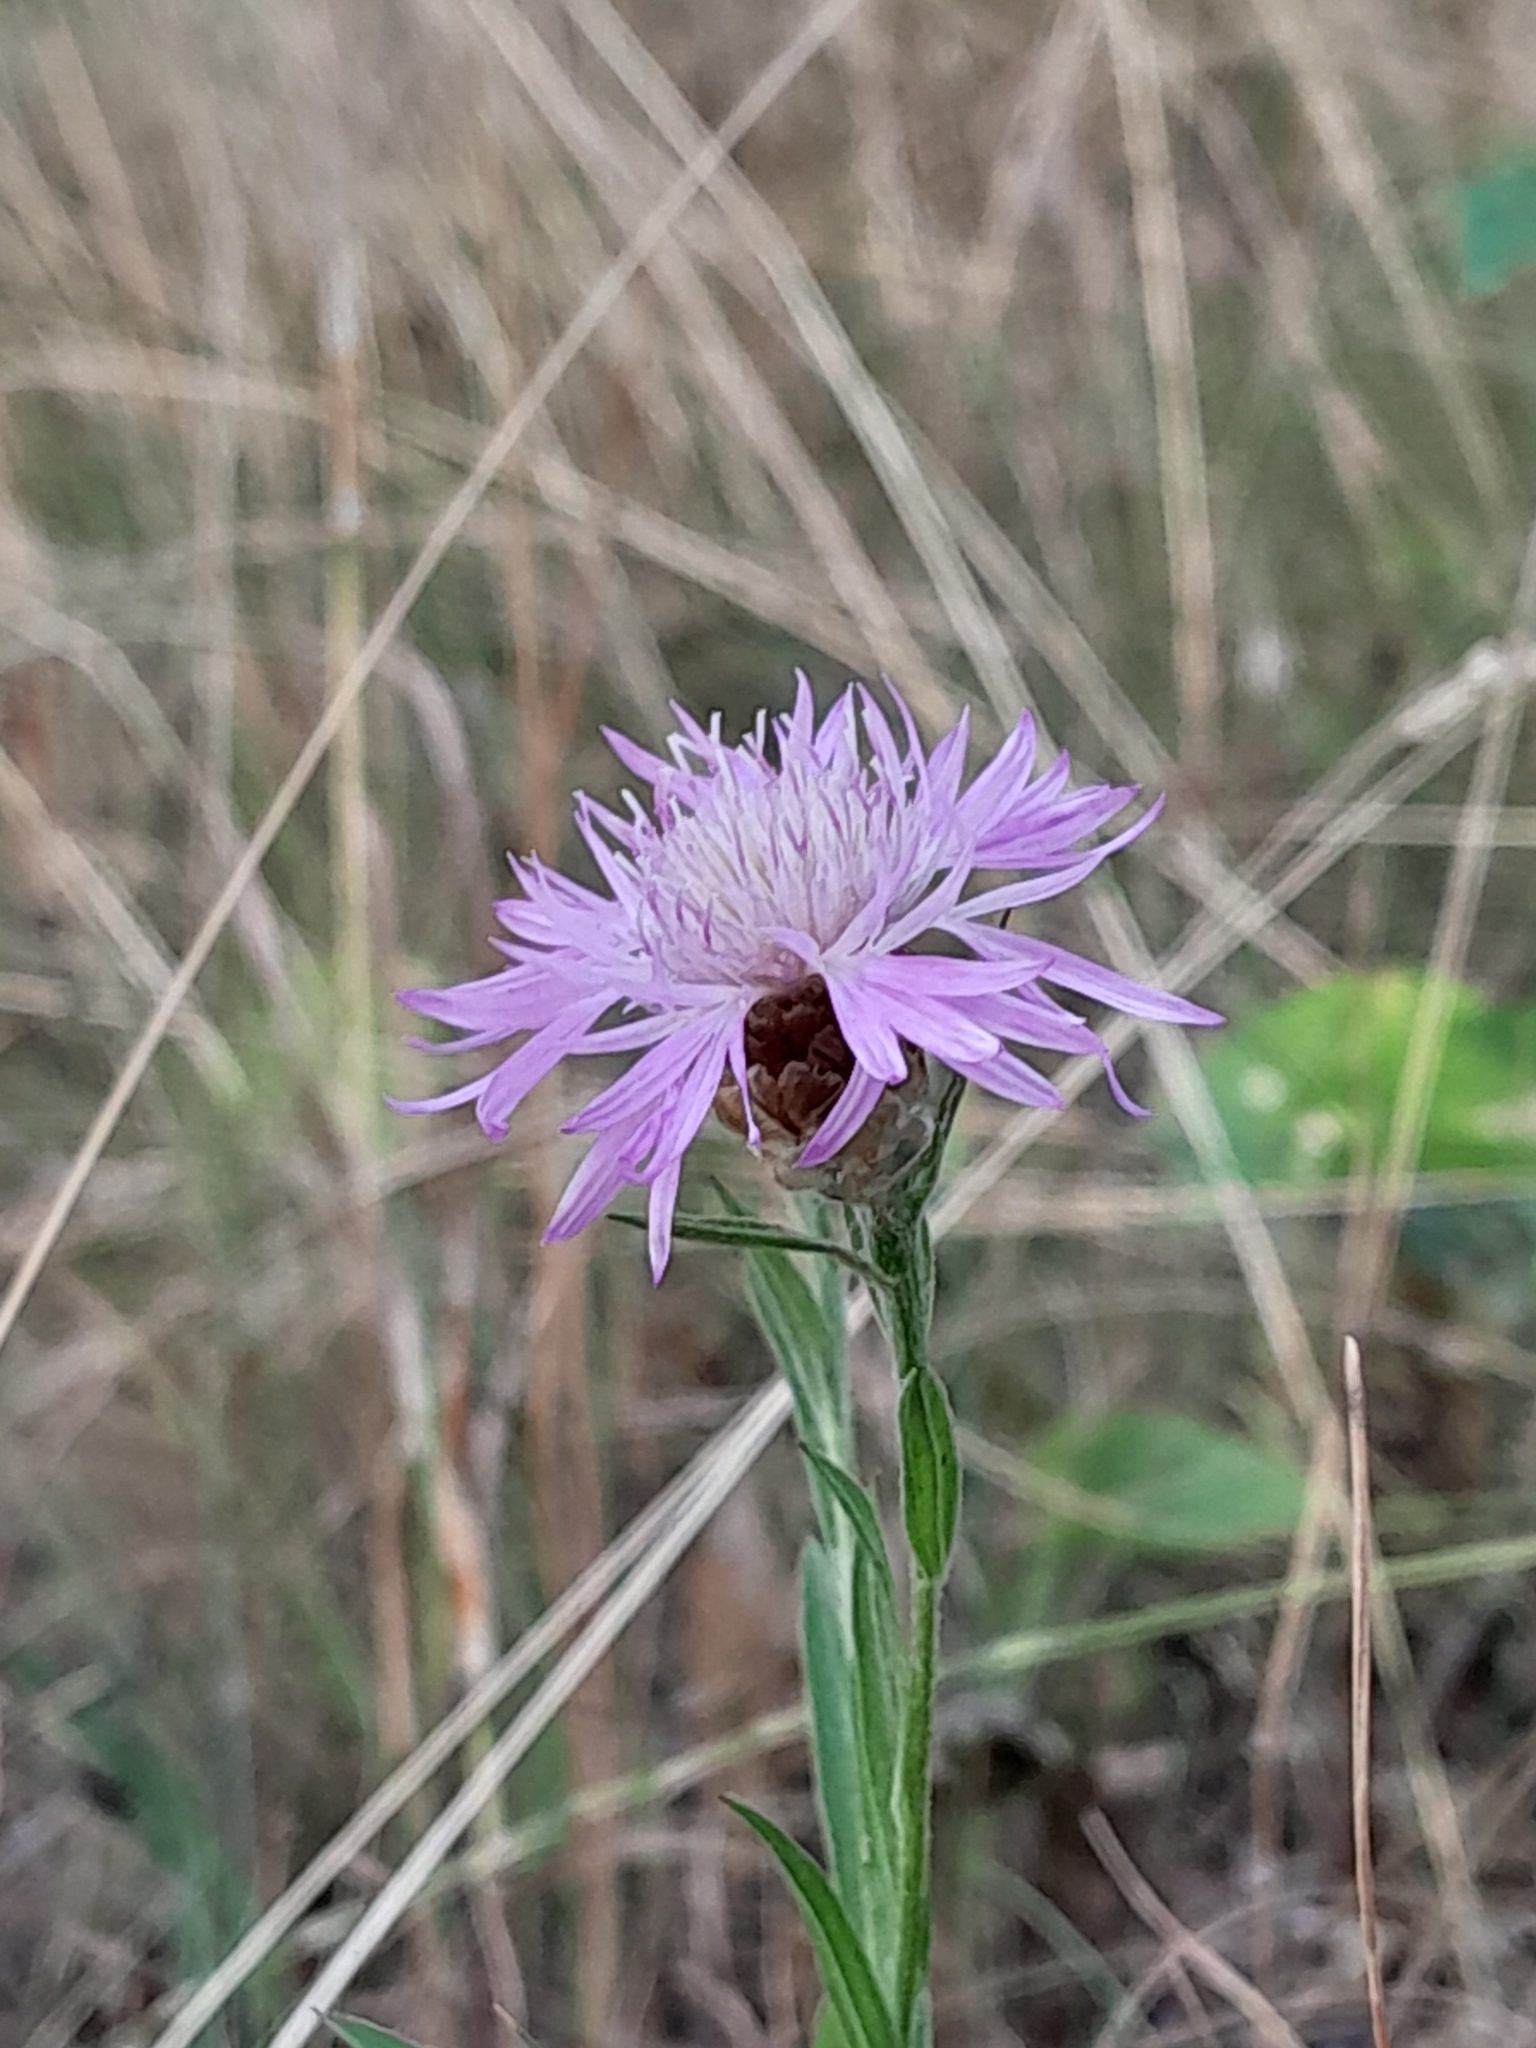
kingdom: Plantae
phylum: Tracheophyta
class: Magnoliopsida
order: Asterales
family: Asteraceae
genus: Centaurea
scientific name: Centaurea jacea
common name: Brown knapweed
